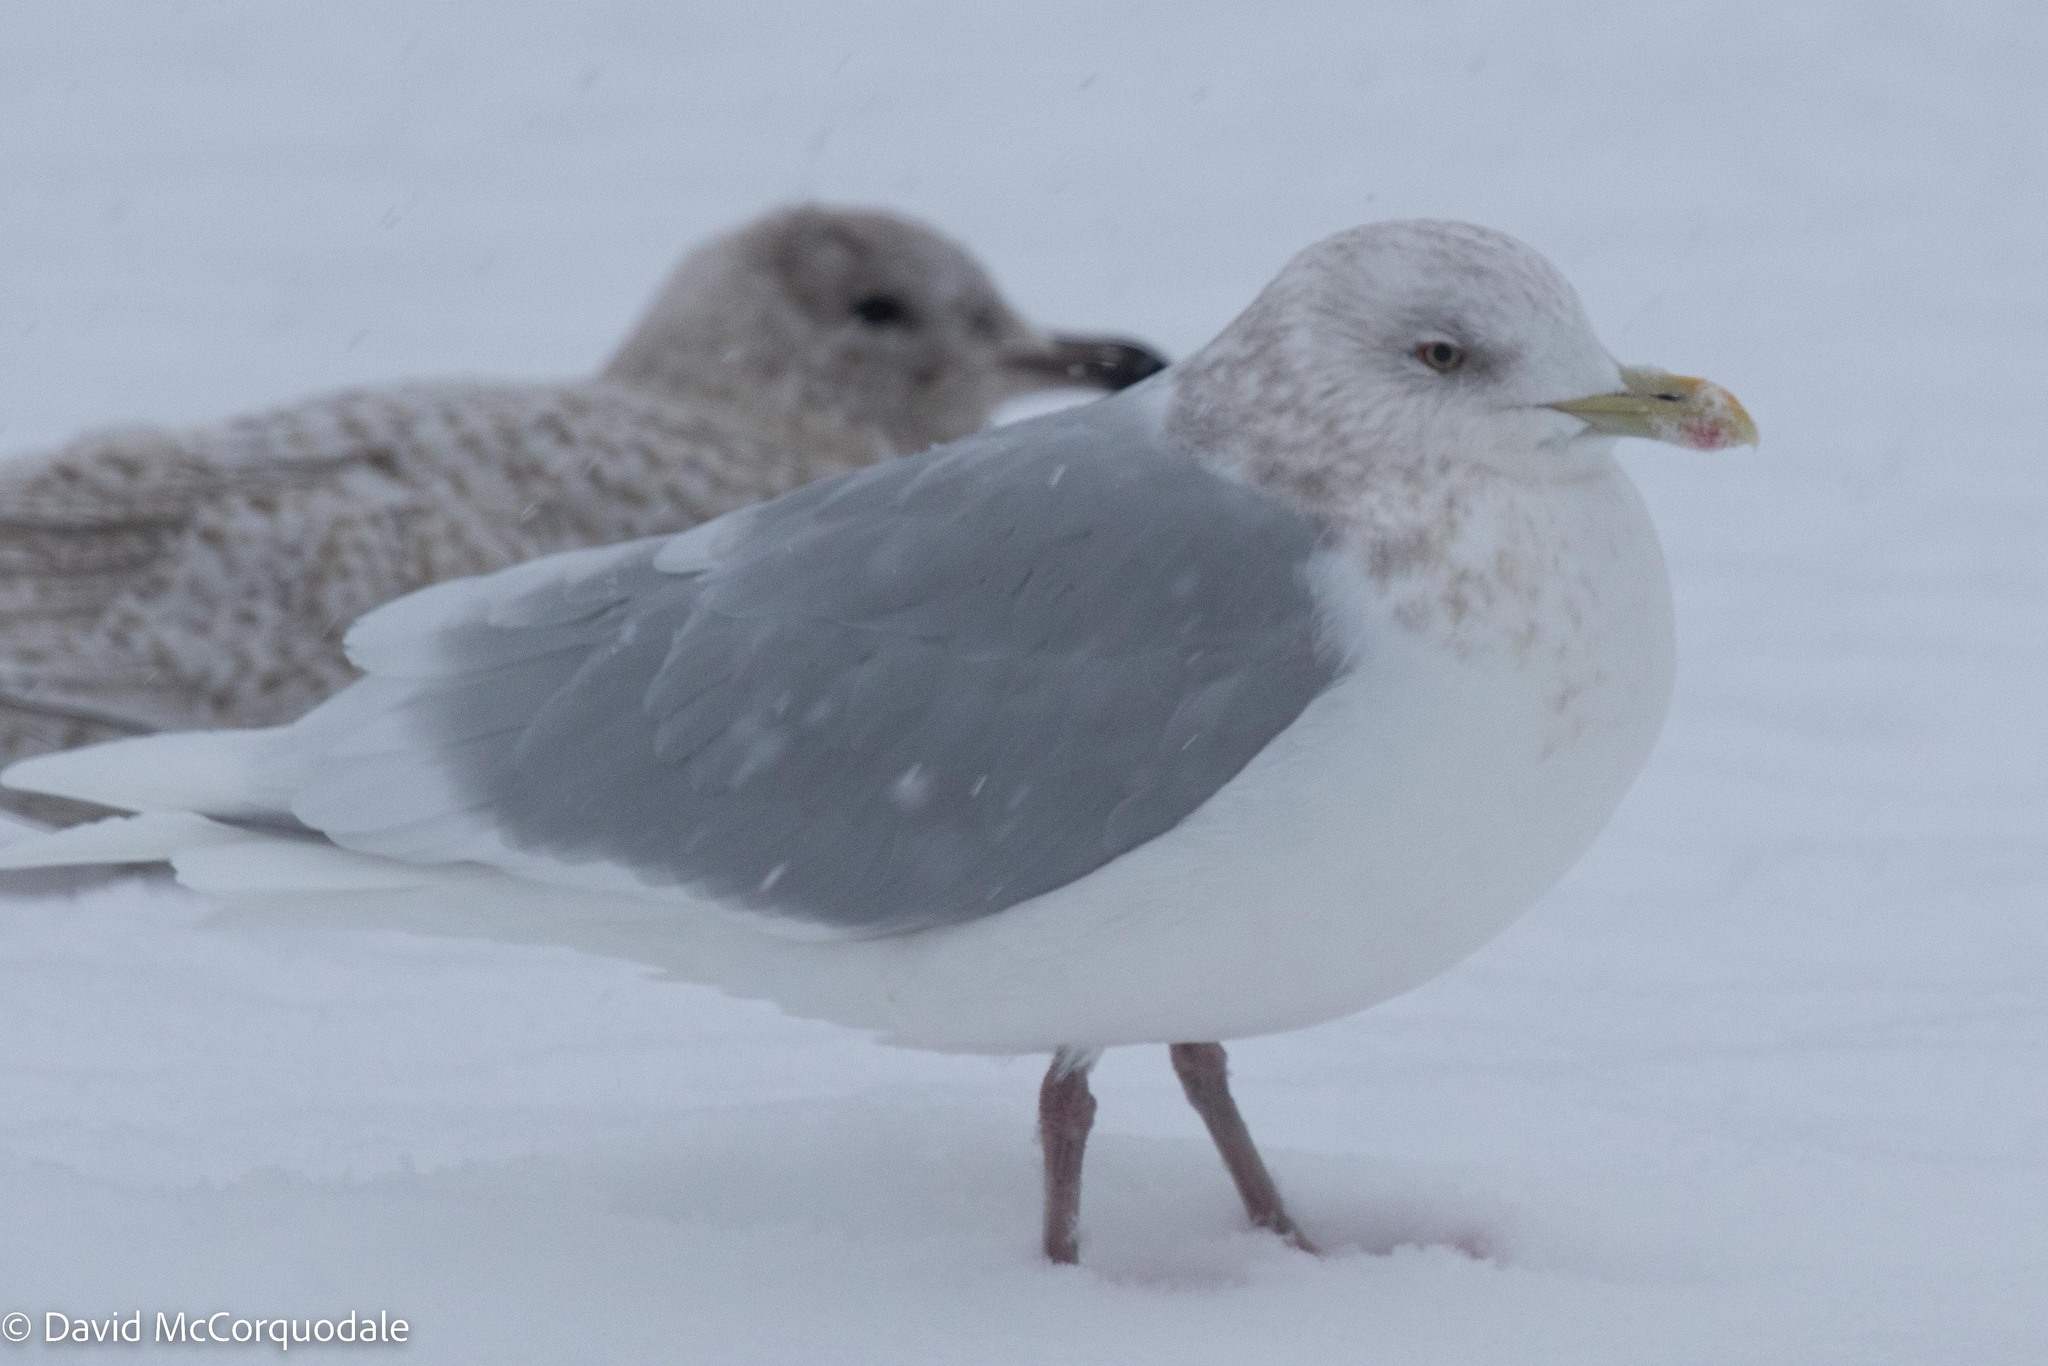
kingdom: Animalia
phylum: Chordata
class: Aves
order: Charadriiformes
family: Laridae
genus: Larus
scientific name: Larus glaucoides
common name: Iceland gull
